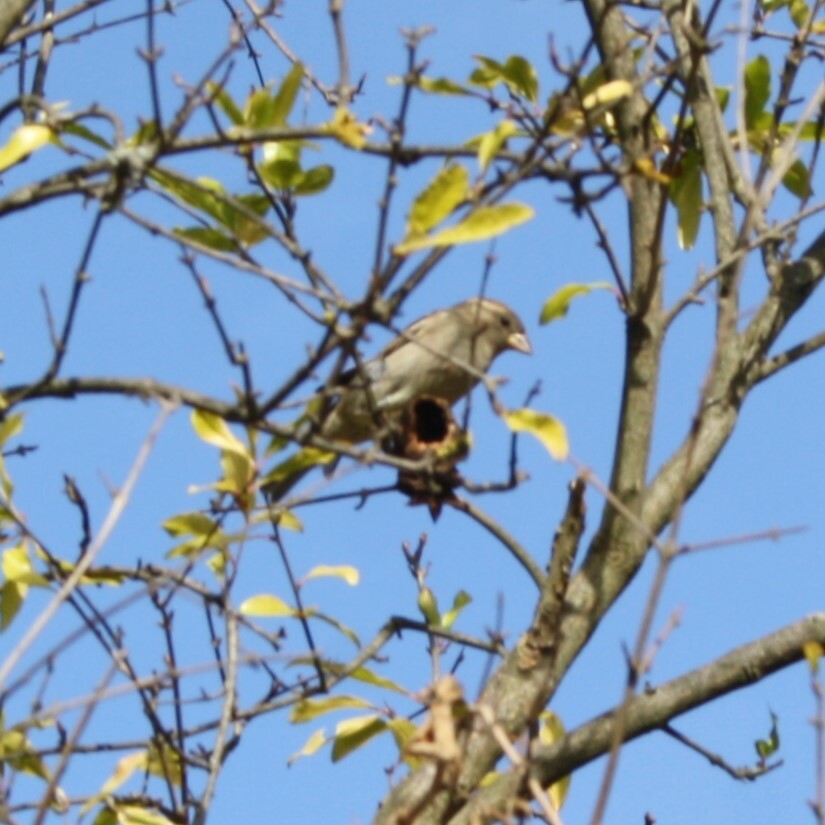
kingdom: Animalia
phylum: Chordata
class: Aves
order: Passeriformes
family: Passeridae
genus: Passer
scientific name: Passer domesticus
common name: House sparrow
